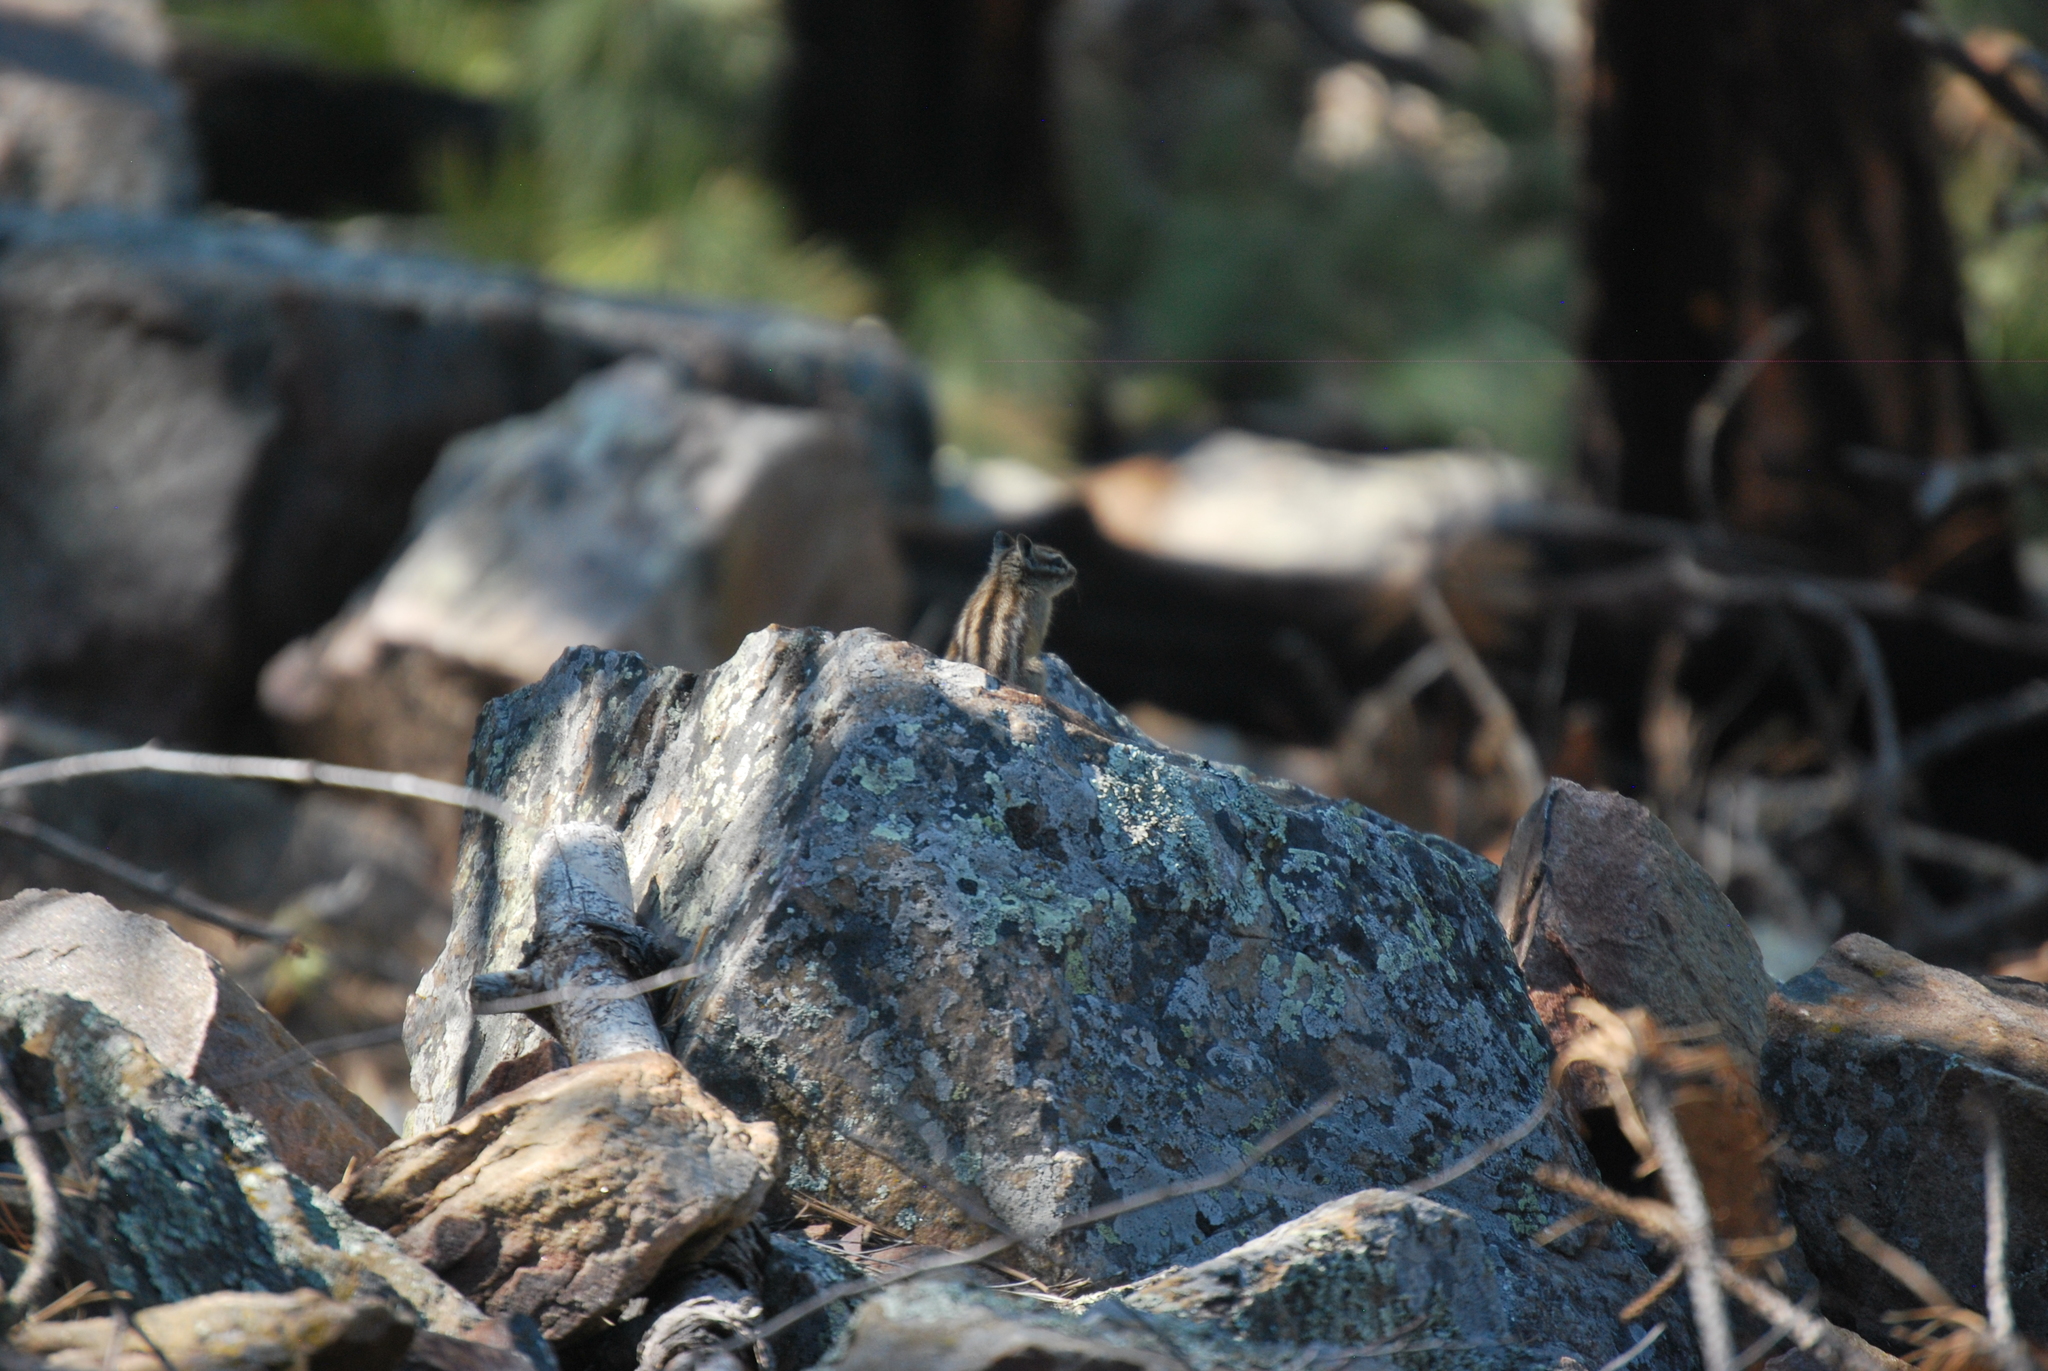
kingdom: Animalia
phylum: Chordata
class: Mammalia
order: Rodentia
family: Sciuridae
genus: Tamias
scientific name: Tamias minimus
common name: Least chipmunk
